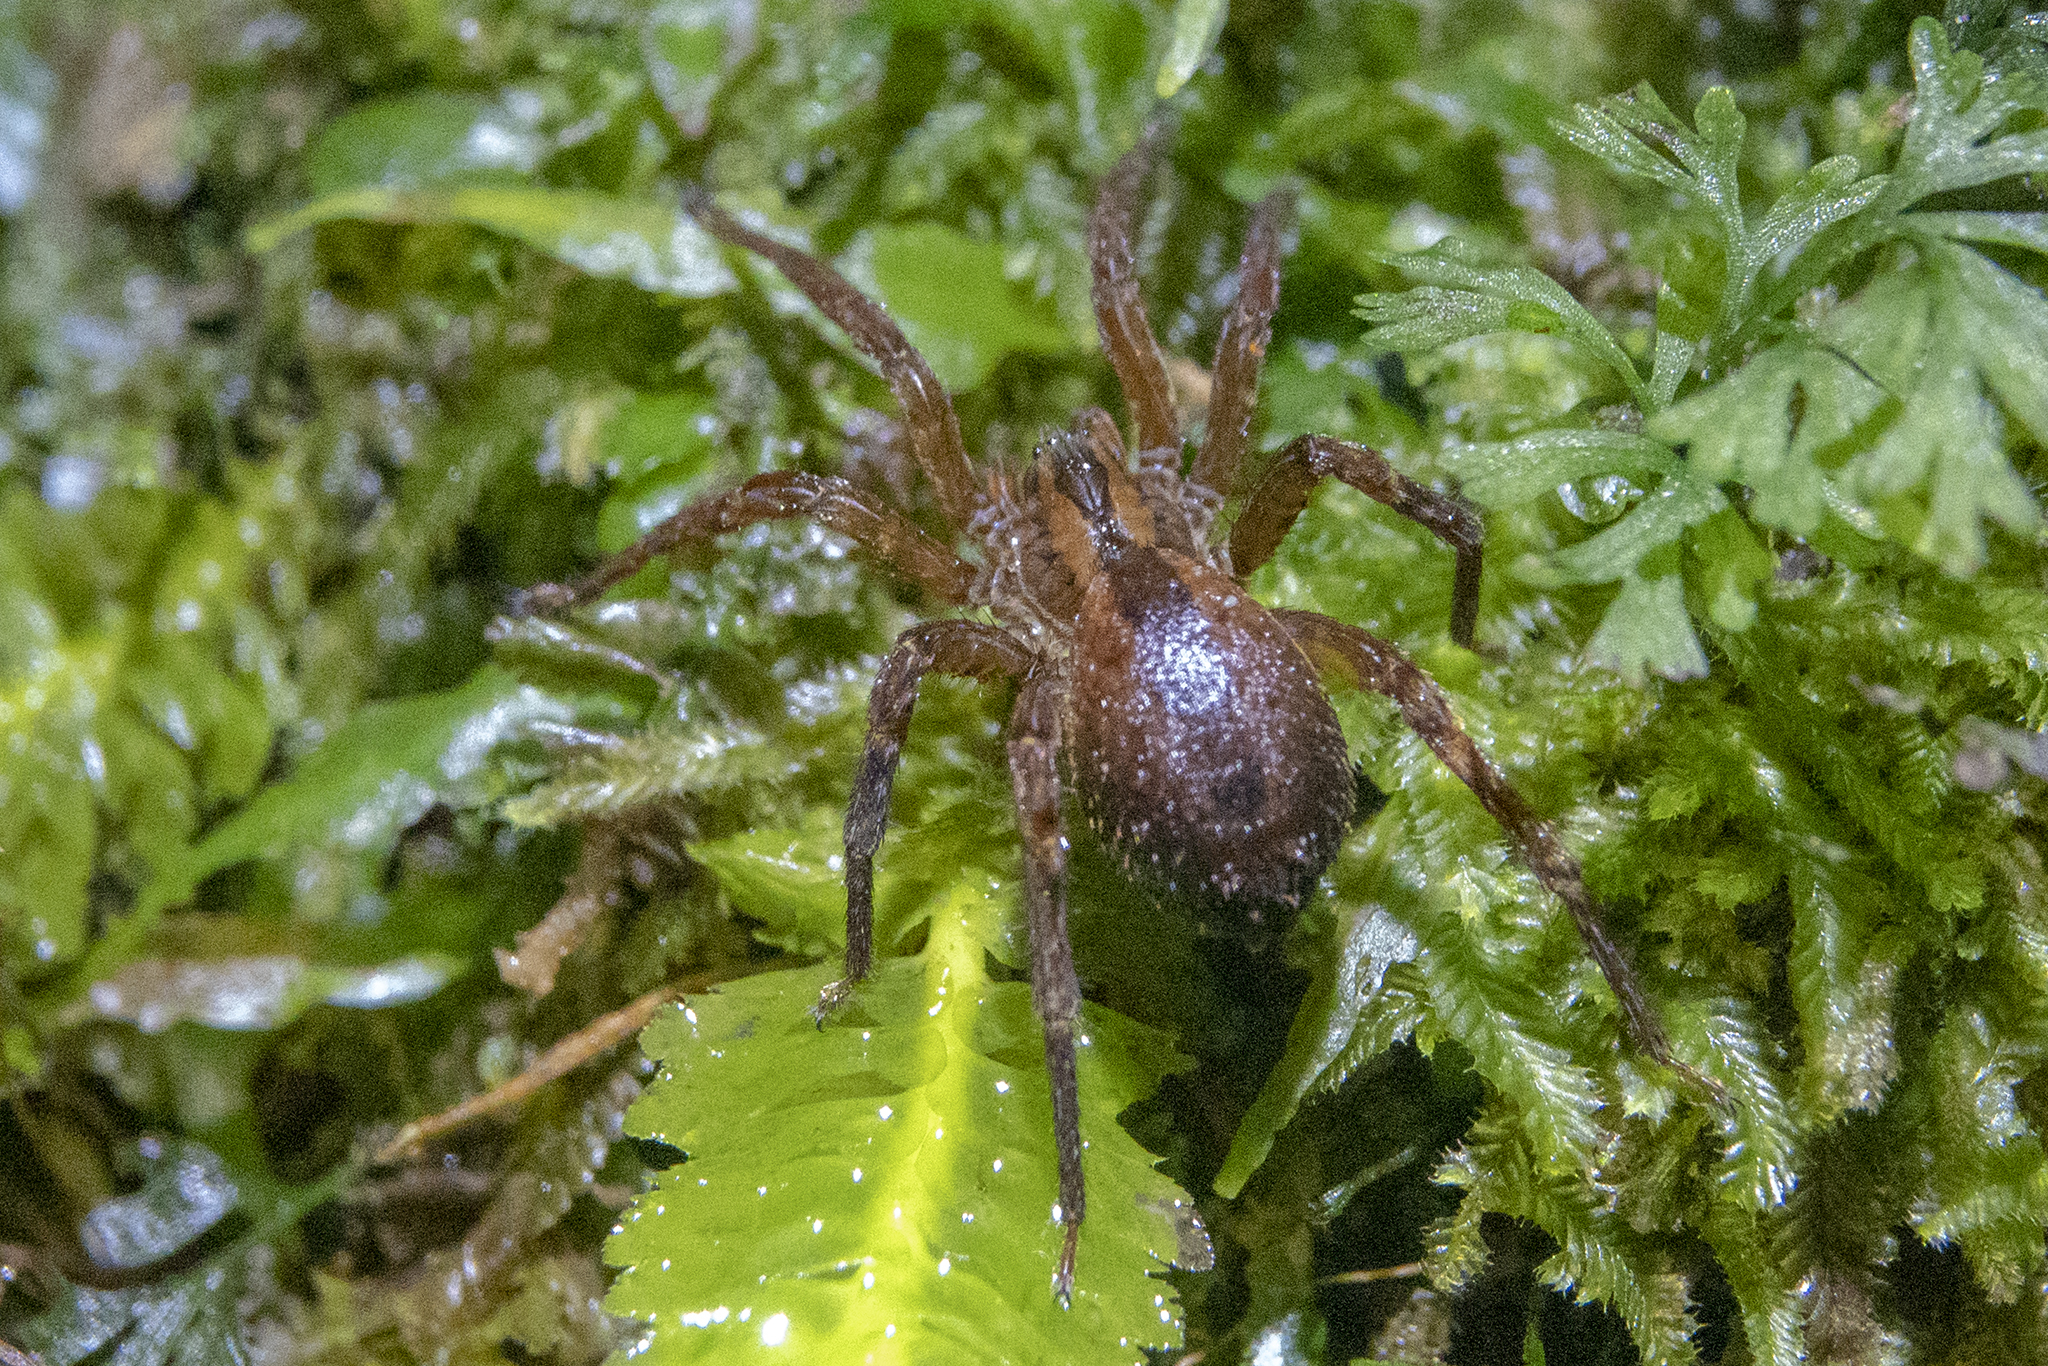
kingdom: Animalia
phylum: Arthropoda
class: Arachnida
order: Araneae
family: Gradungulidae
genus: Gradungula
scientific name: Gradungula sorenseni
